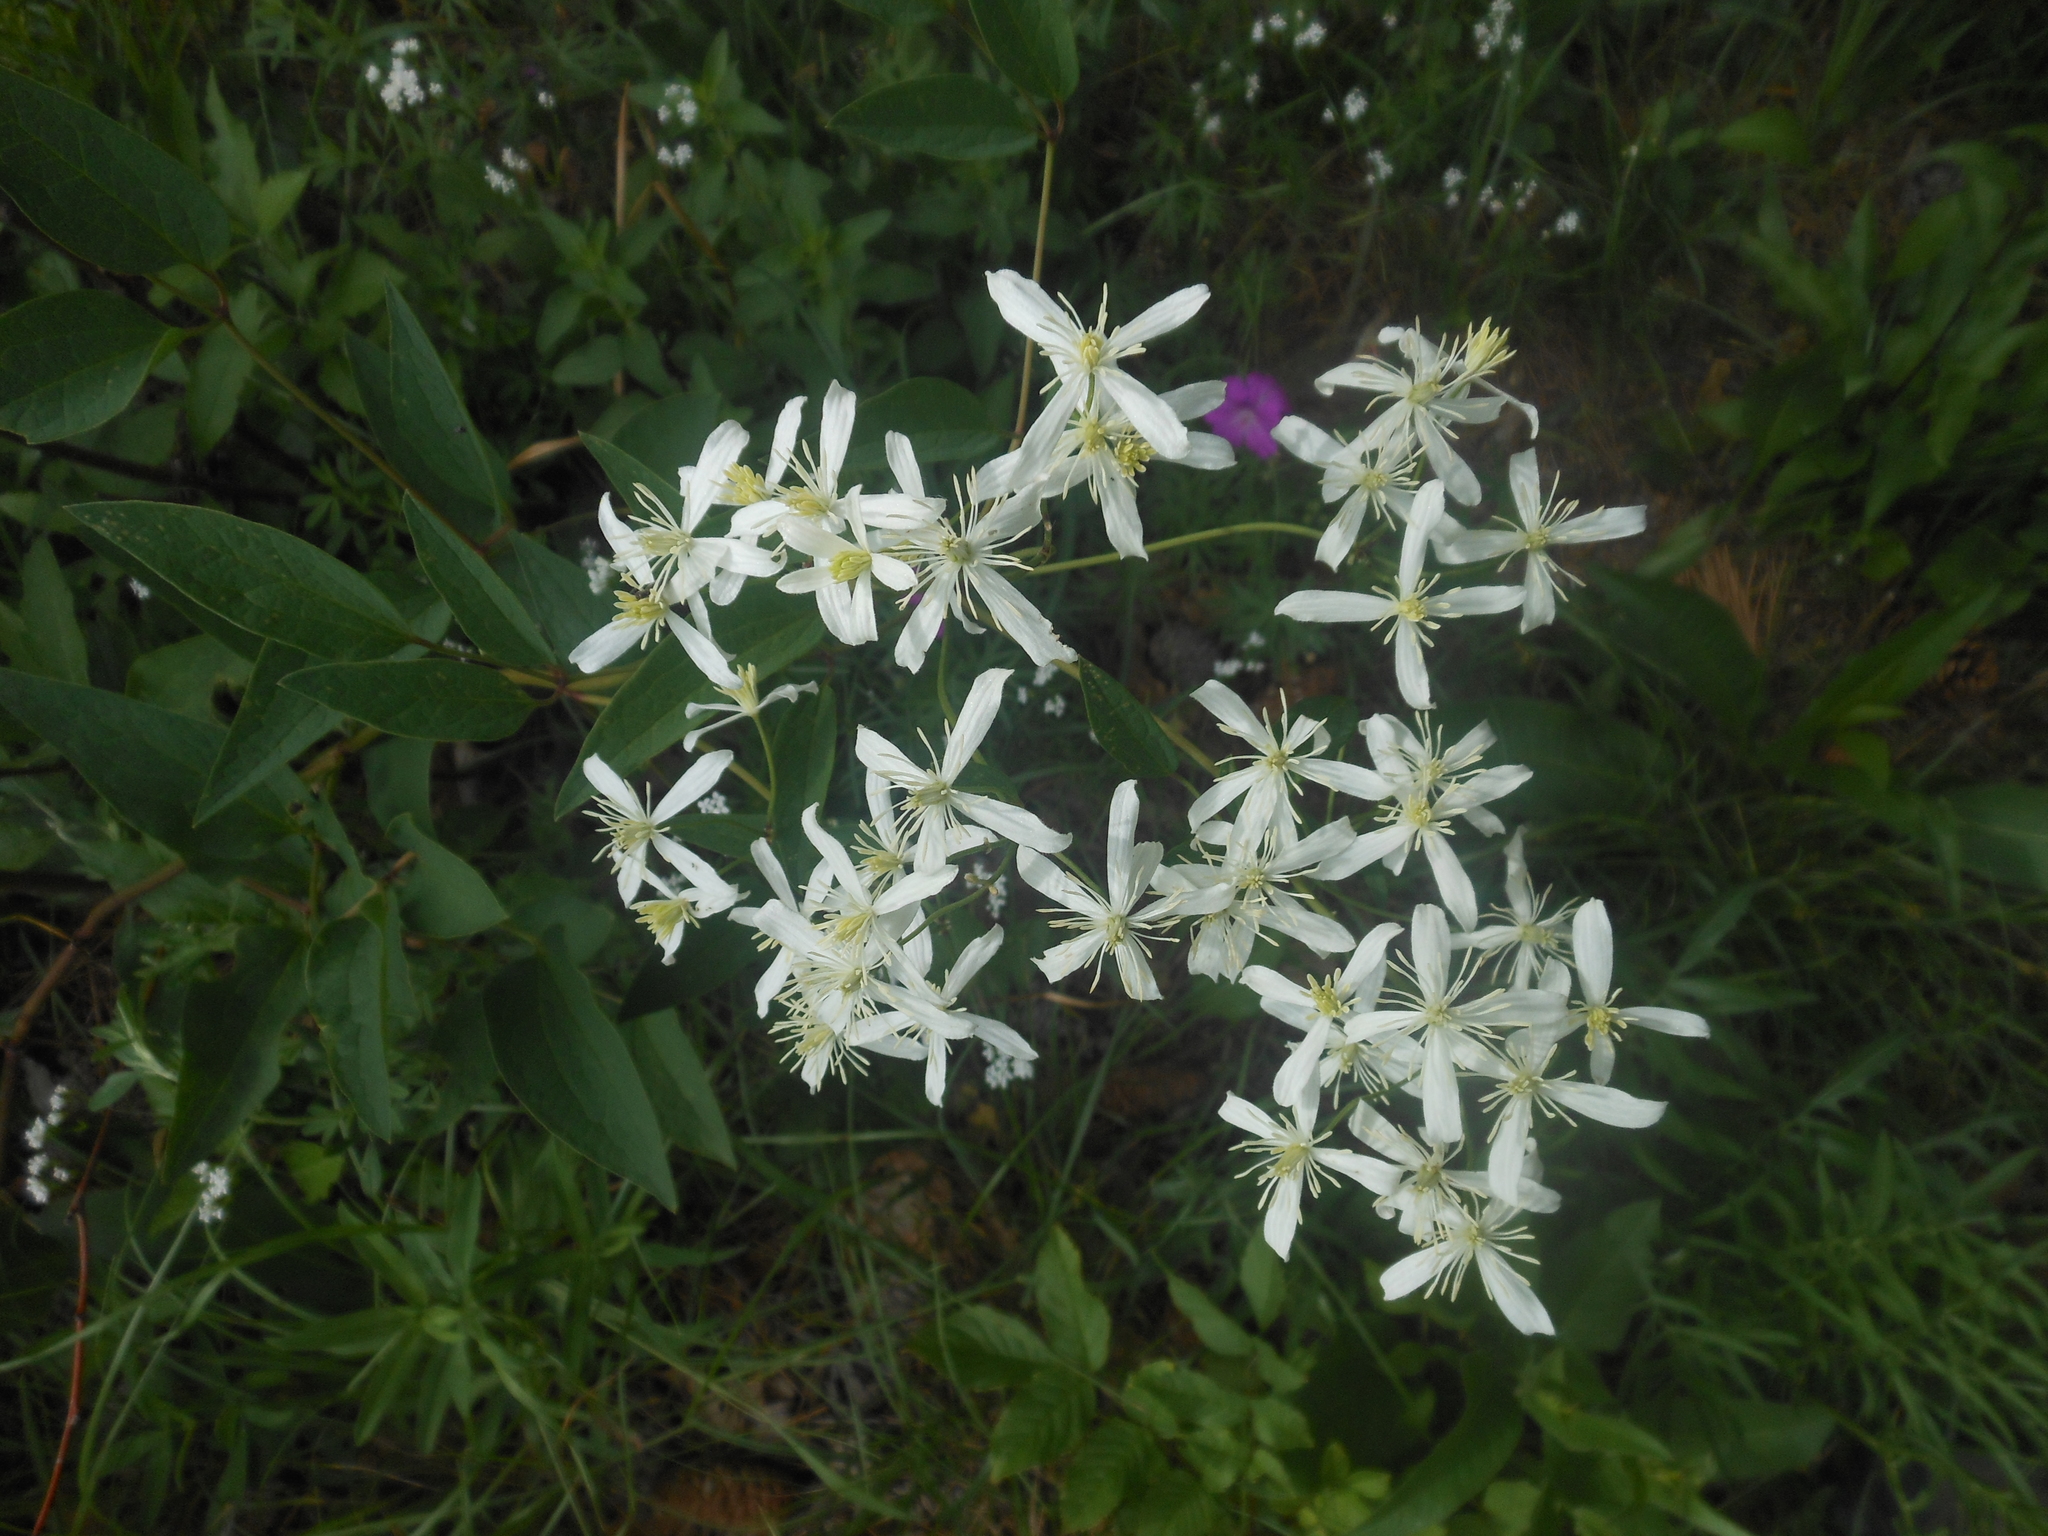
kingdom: Plantae
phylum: Tracheophyta
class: Magnoliopsida
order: Ranunculales
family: Ranunculaceae
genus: Clematis
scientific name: Clematis recta
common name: Ground clematis
